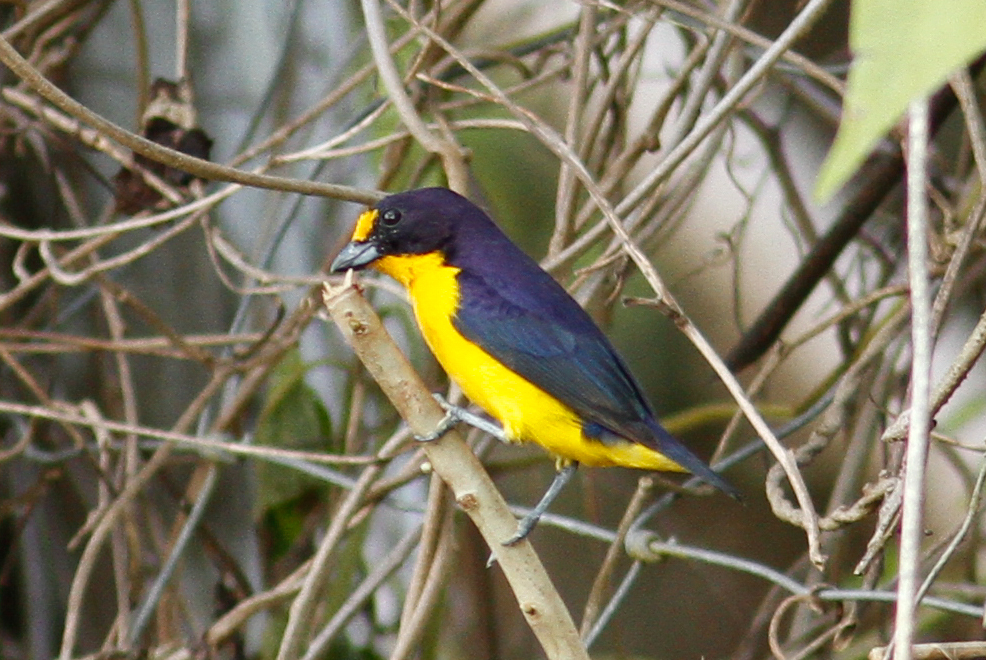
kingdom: Animalia
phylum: Chordata
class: Aves
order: Passeriformes
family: Fringillidae
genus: Euphonia
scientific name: Euphonia violacea
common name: Violaceous euphonia
